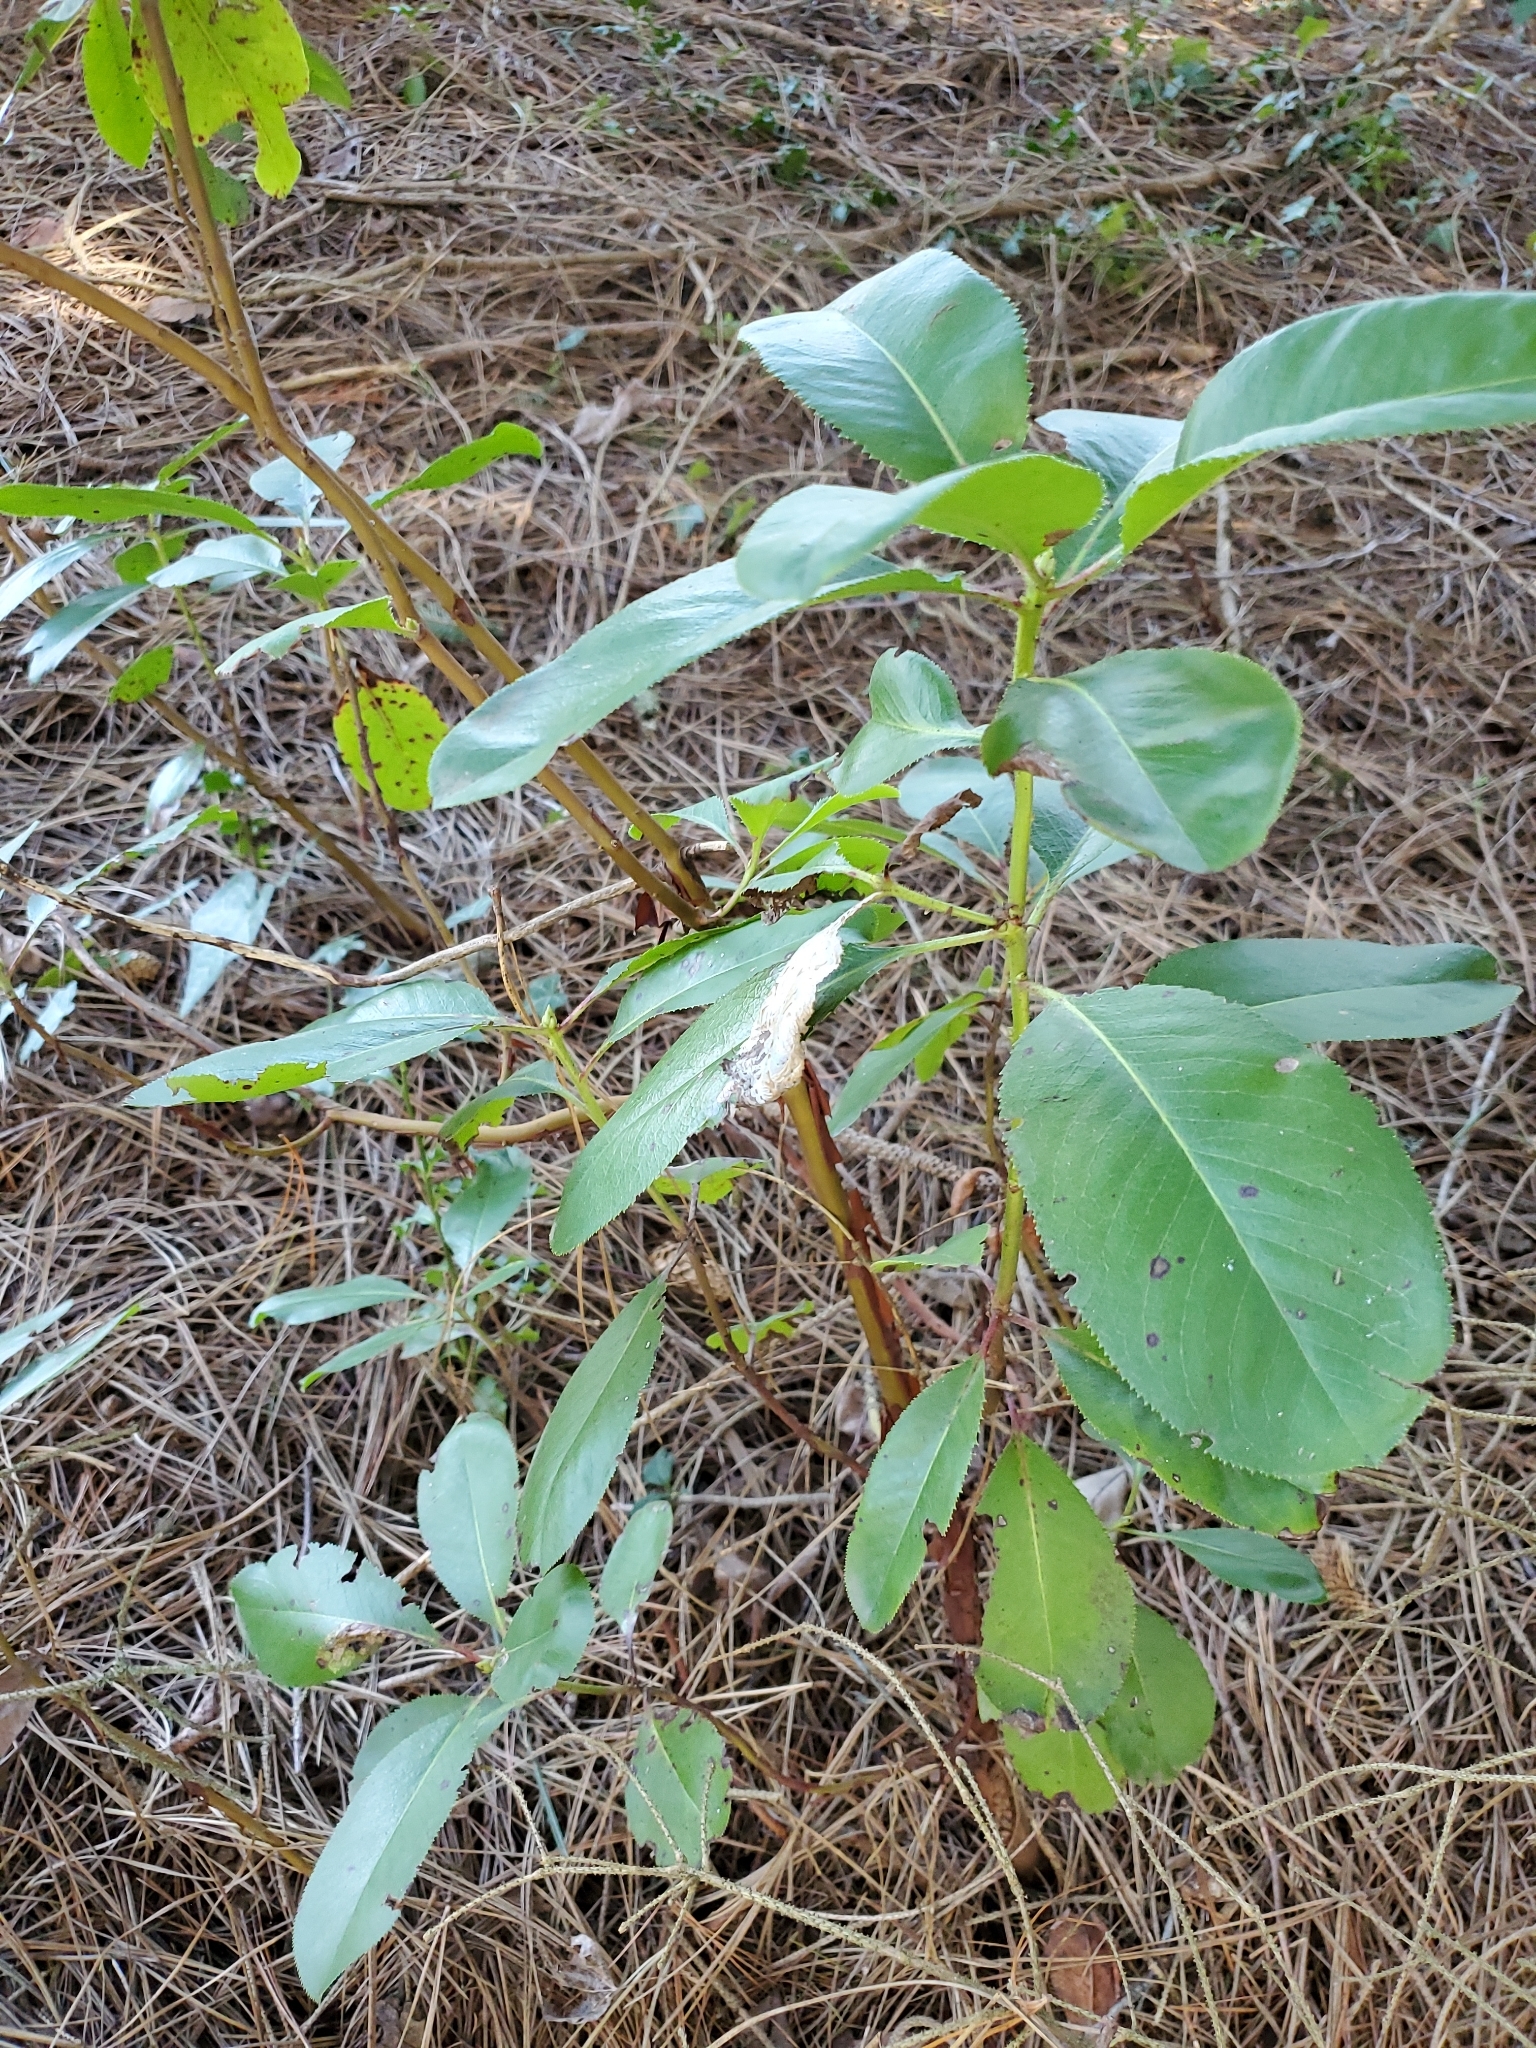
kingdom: Plantae
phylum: Tracheophyta
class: Magnoliopsida
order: Ericales
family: Ericaceae
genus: Arbutus
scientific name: Arbutus menziesii
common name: Pacific madrone
